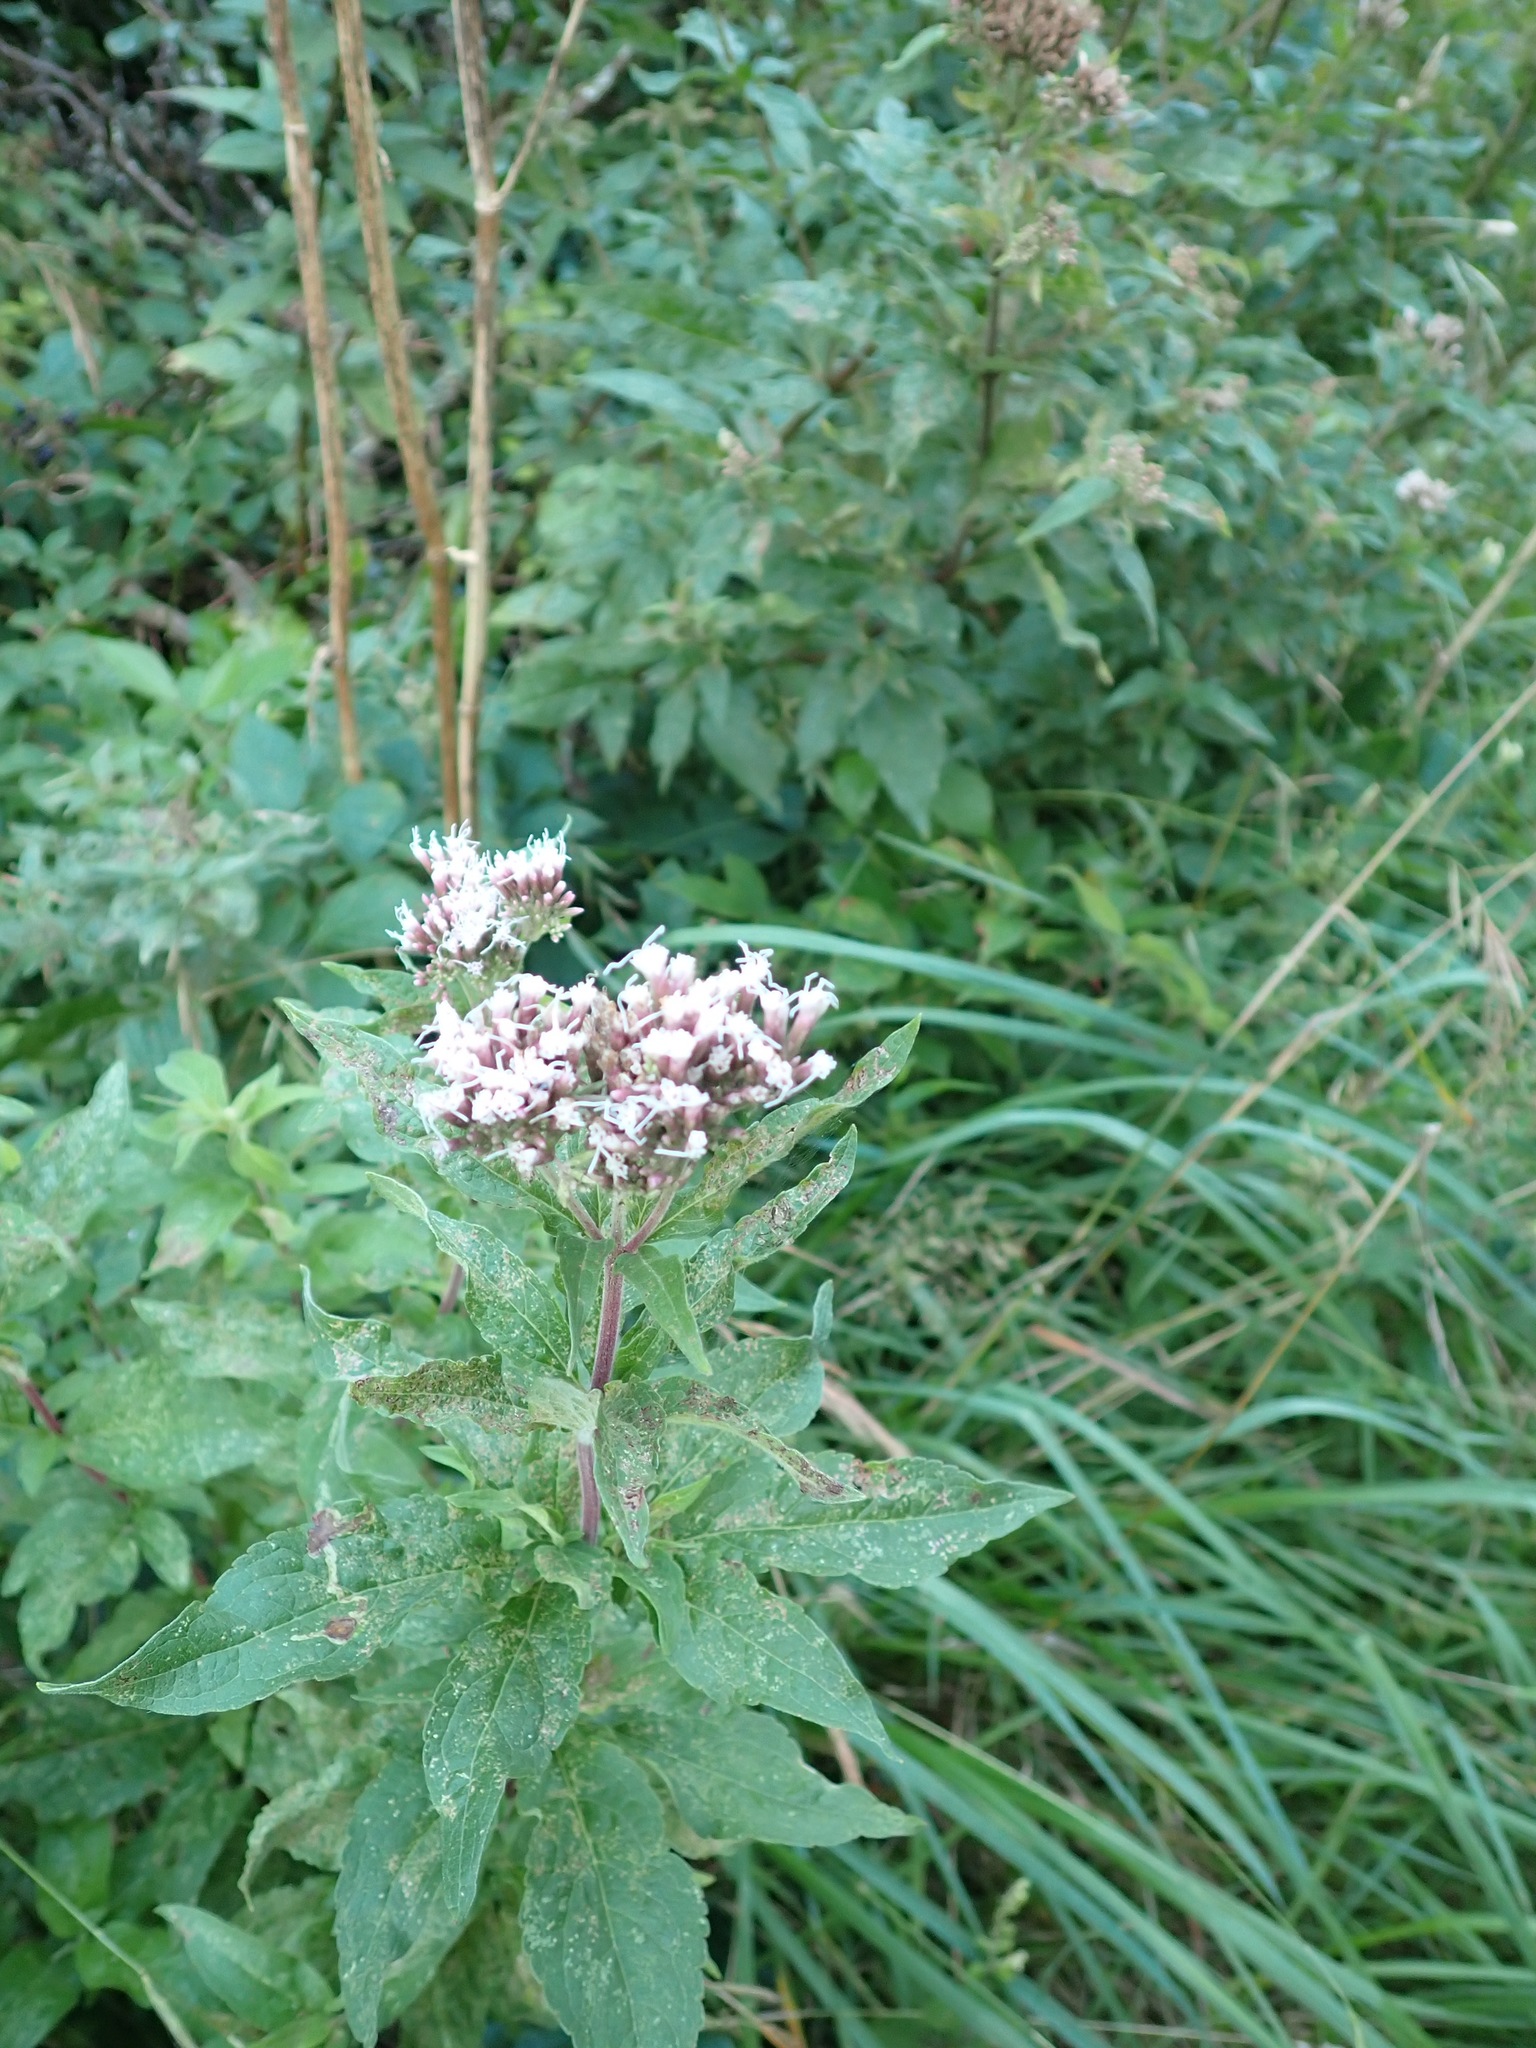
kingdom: Plantae
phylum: Tracheophyta
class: Magnoliopsida
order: Asterales
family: Asteraceae
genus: Eupatorium
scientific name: Eupatorium cannabinum
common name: Hemp-agrimony
